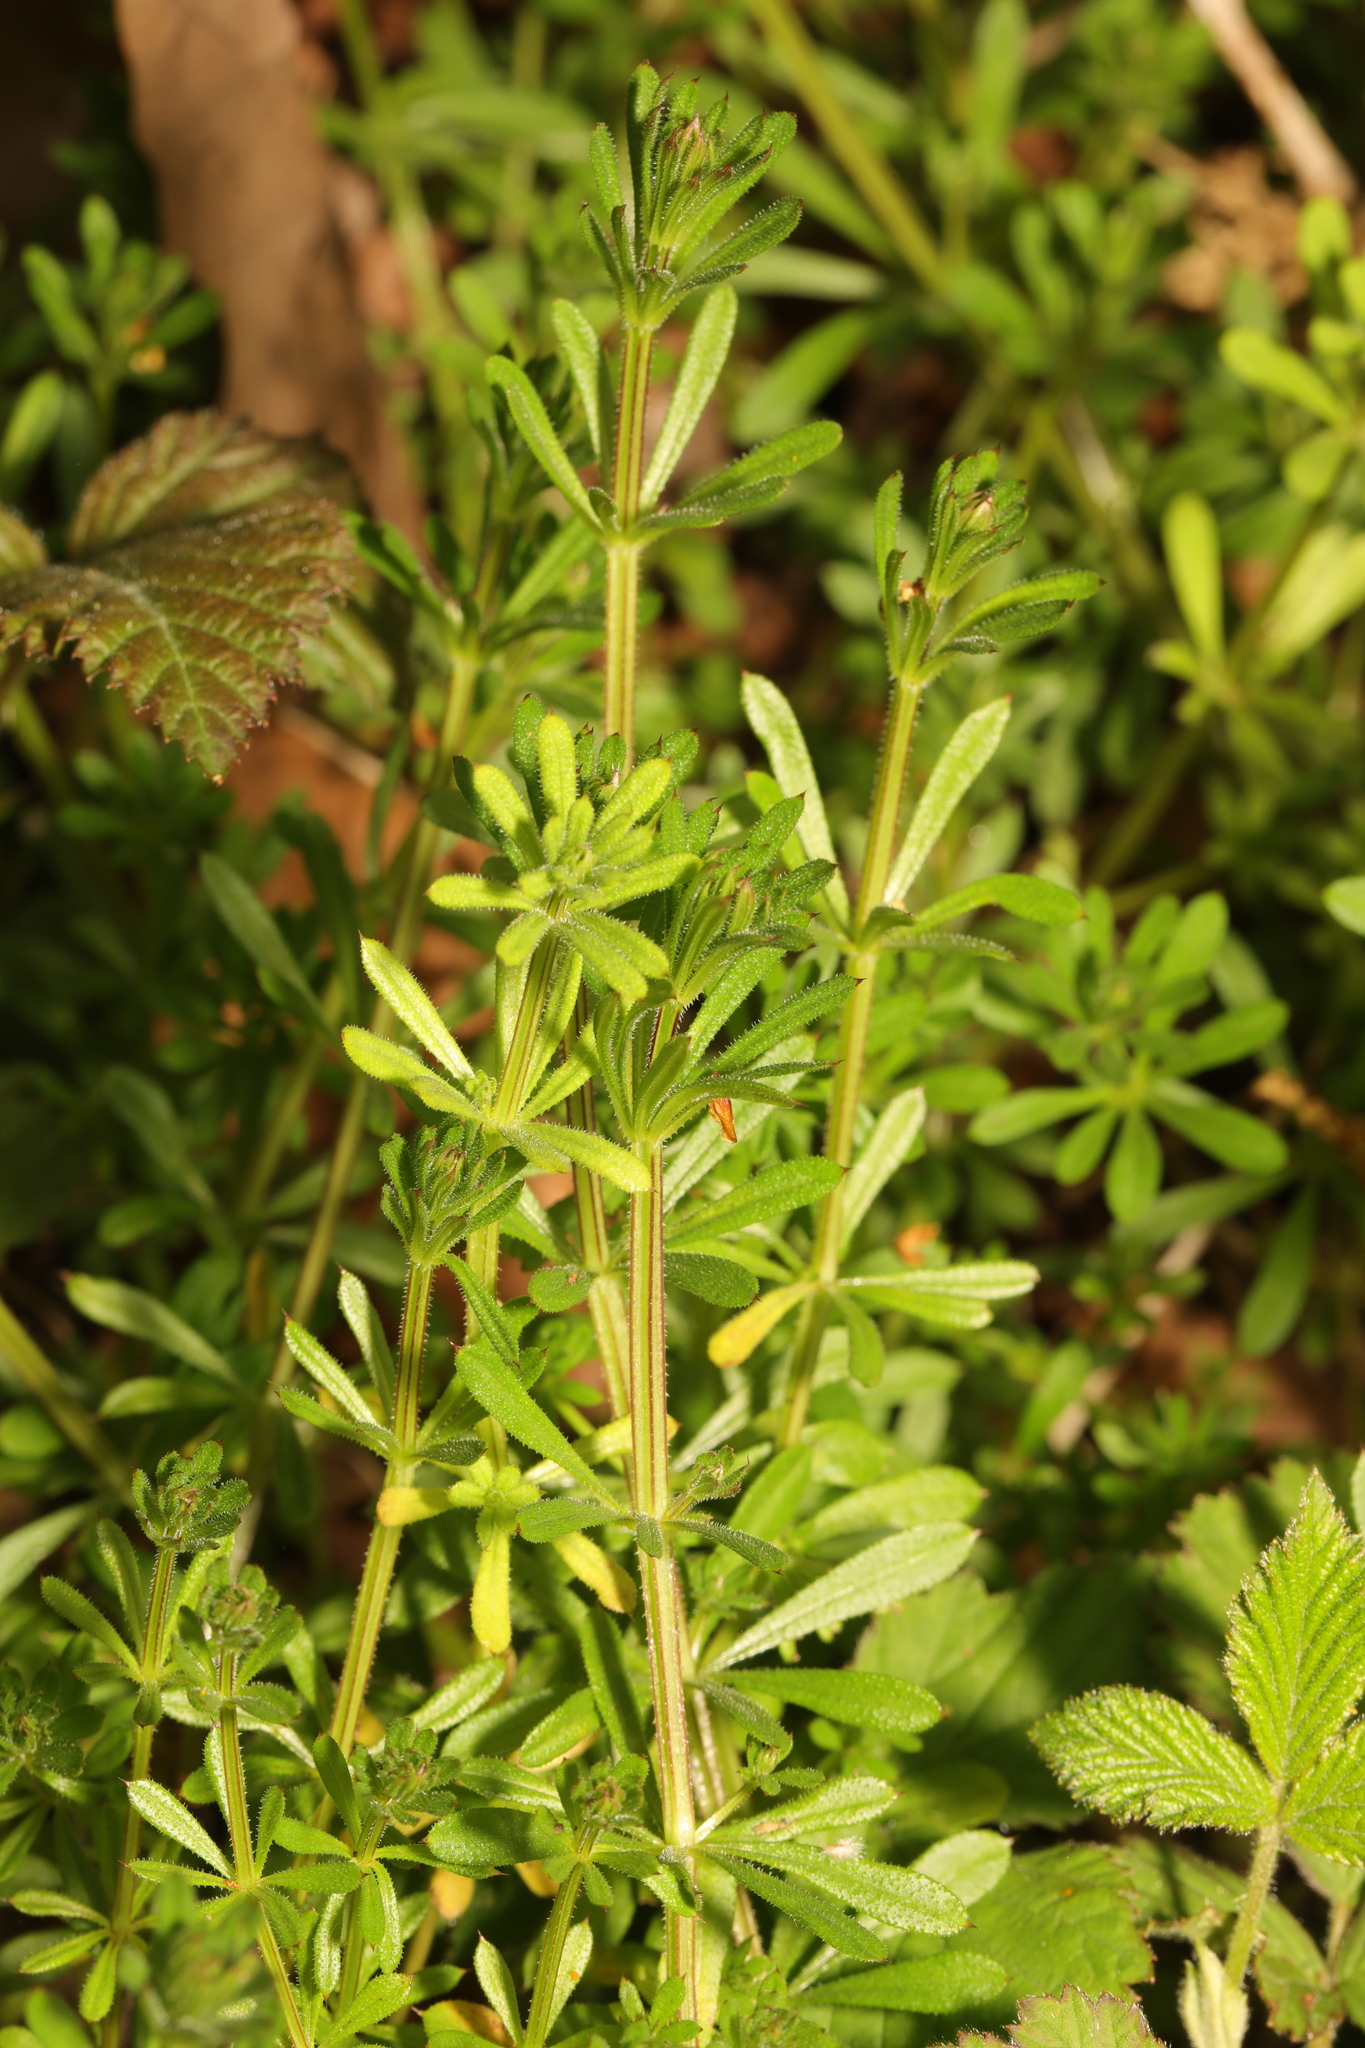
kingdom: Plantae
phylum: Tracheophyta
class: Magnoliopsida
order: Gentianales
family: Rubiaceae
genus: Galium
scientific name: Galium aparine
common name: Cleavers
